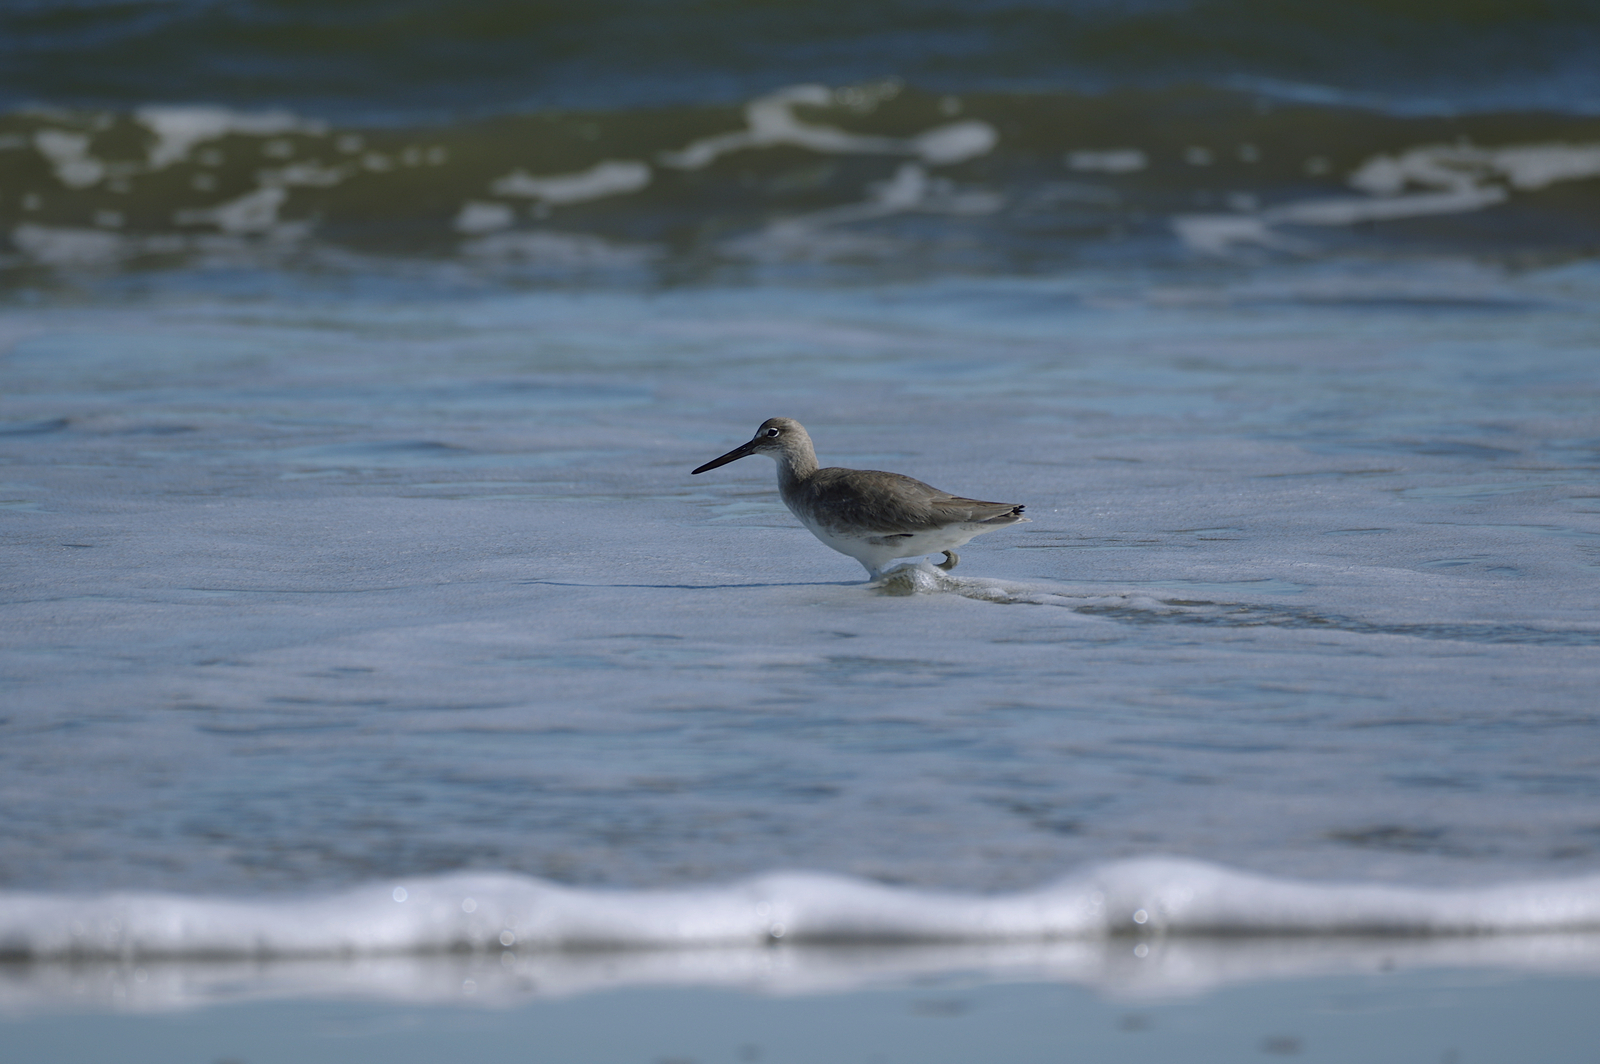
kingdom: Animalia
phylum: Chordata
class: Aves
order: Charadriiformes
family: Scolopacidae
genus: Tringa
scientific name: Tringa semipalmata
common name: Willet
